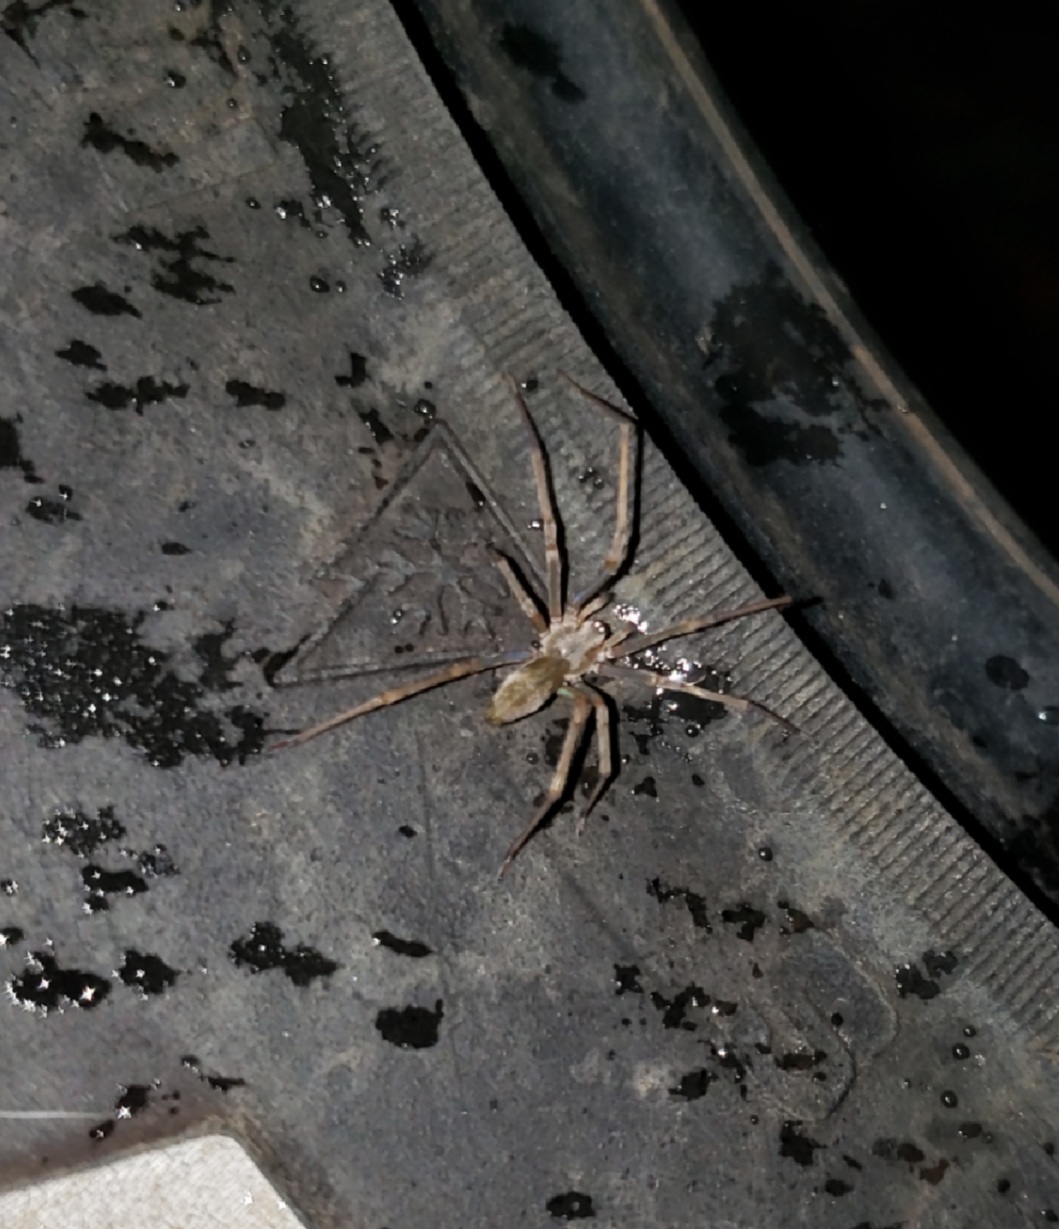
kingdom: Animalia
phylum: Arthropoda
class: Arachnida
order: Araneae
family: Cheiracanthiidae
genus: Cheiracanthium
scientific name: Cheiracanthium
